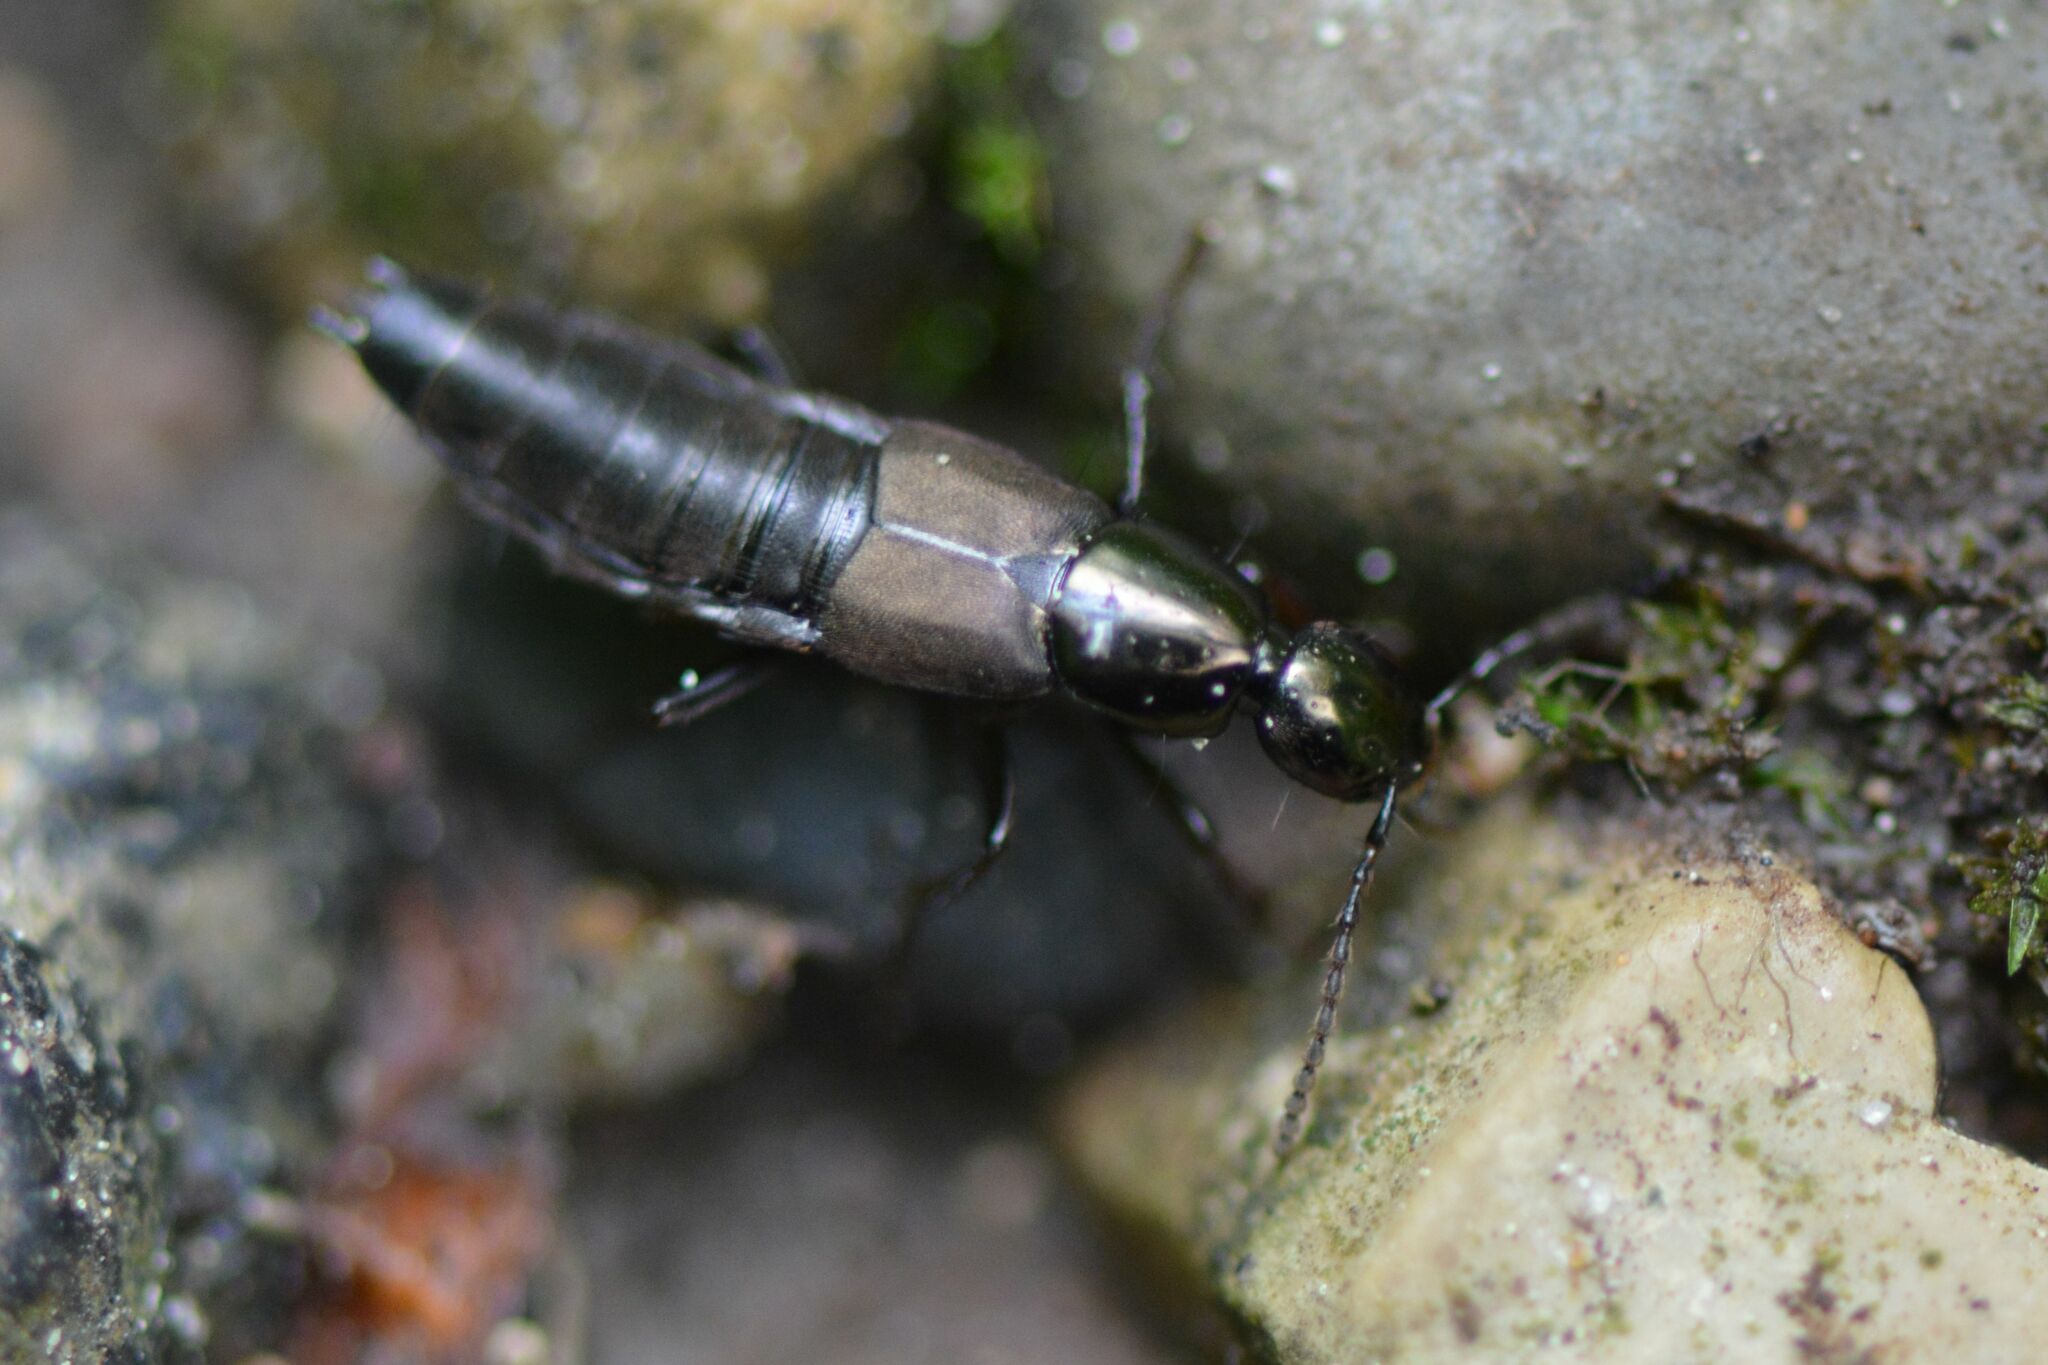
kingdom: Animalia
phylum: Arthropoda
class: Insecta
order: Coleoptera
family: Staphylinidae
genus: Philonthus
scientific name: Philonthus decorus
